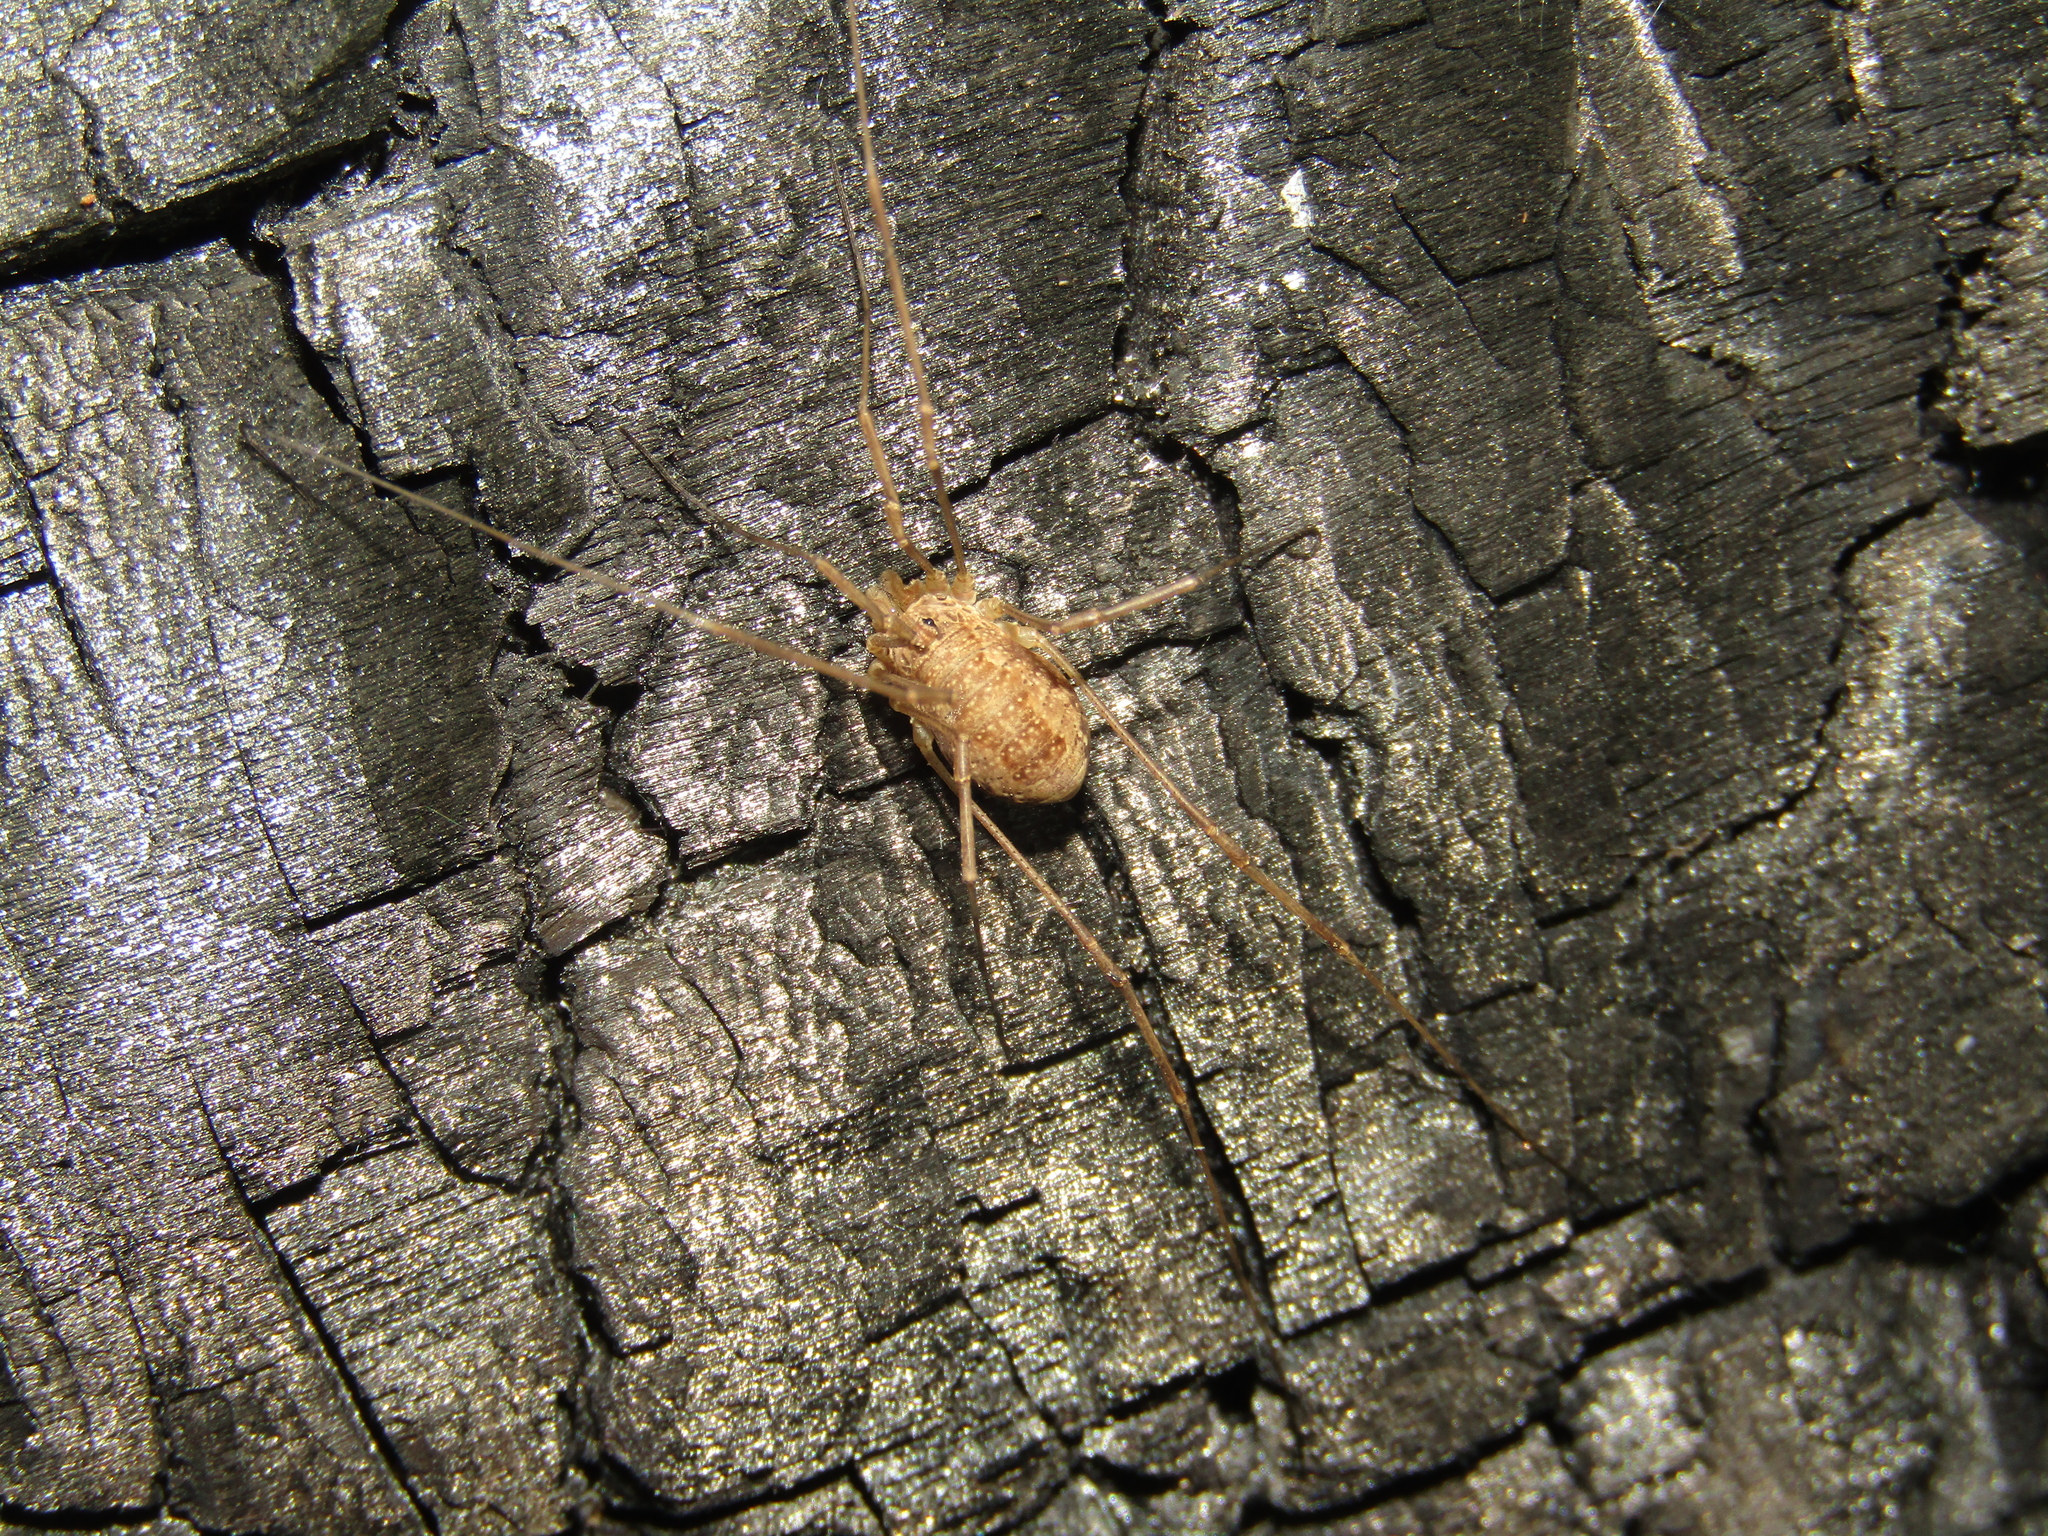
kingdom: Animalia
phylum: Arthropoda
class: Arachnida
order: Opiliones
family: Phalangiidae
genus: Rilaena
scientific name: Rilaena triangularis
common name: Spring harvestman
